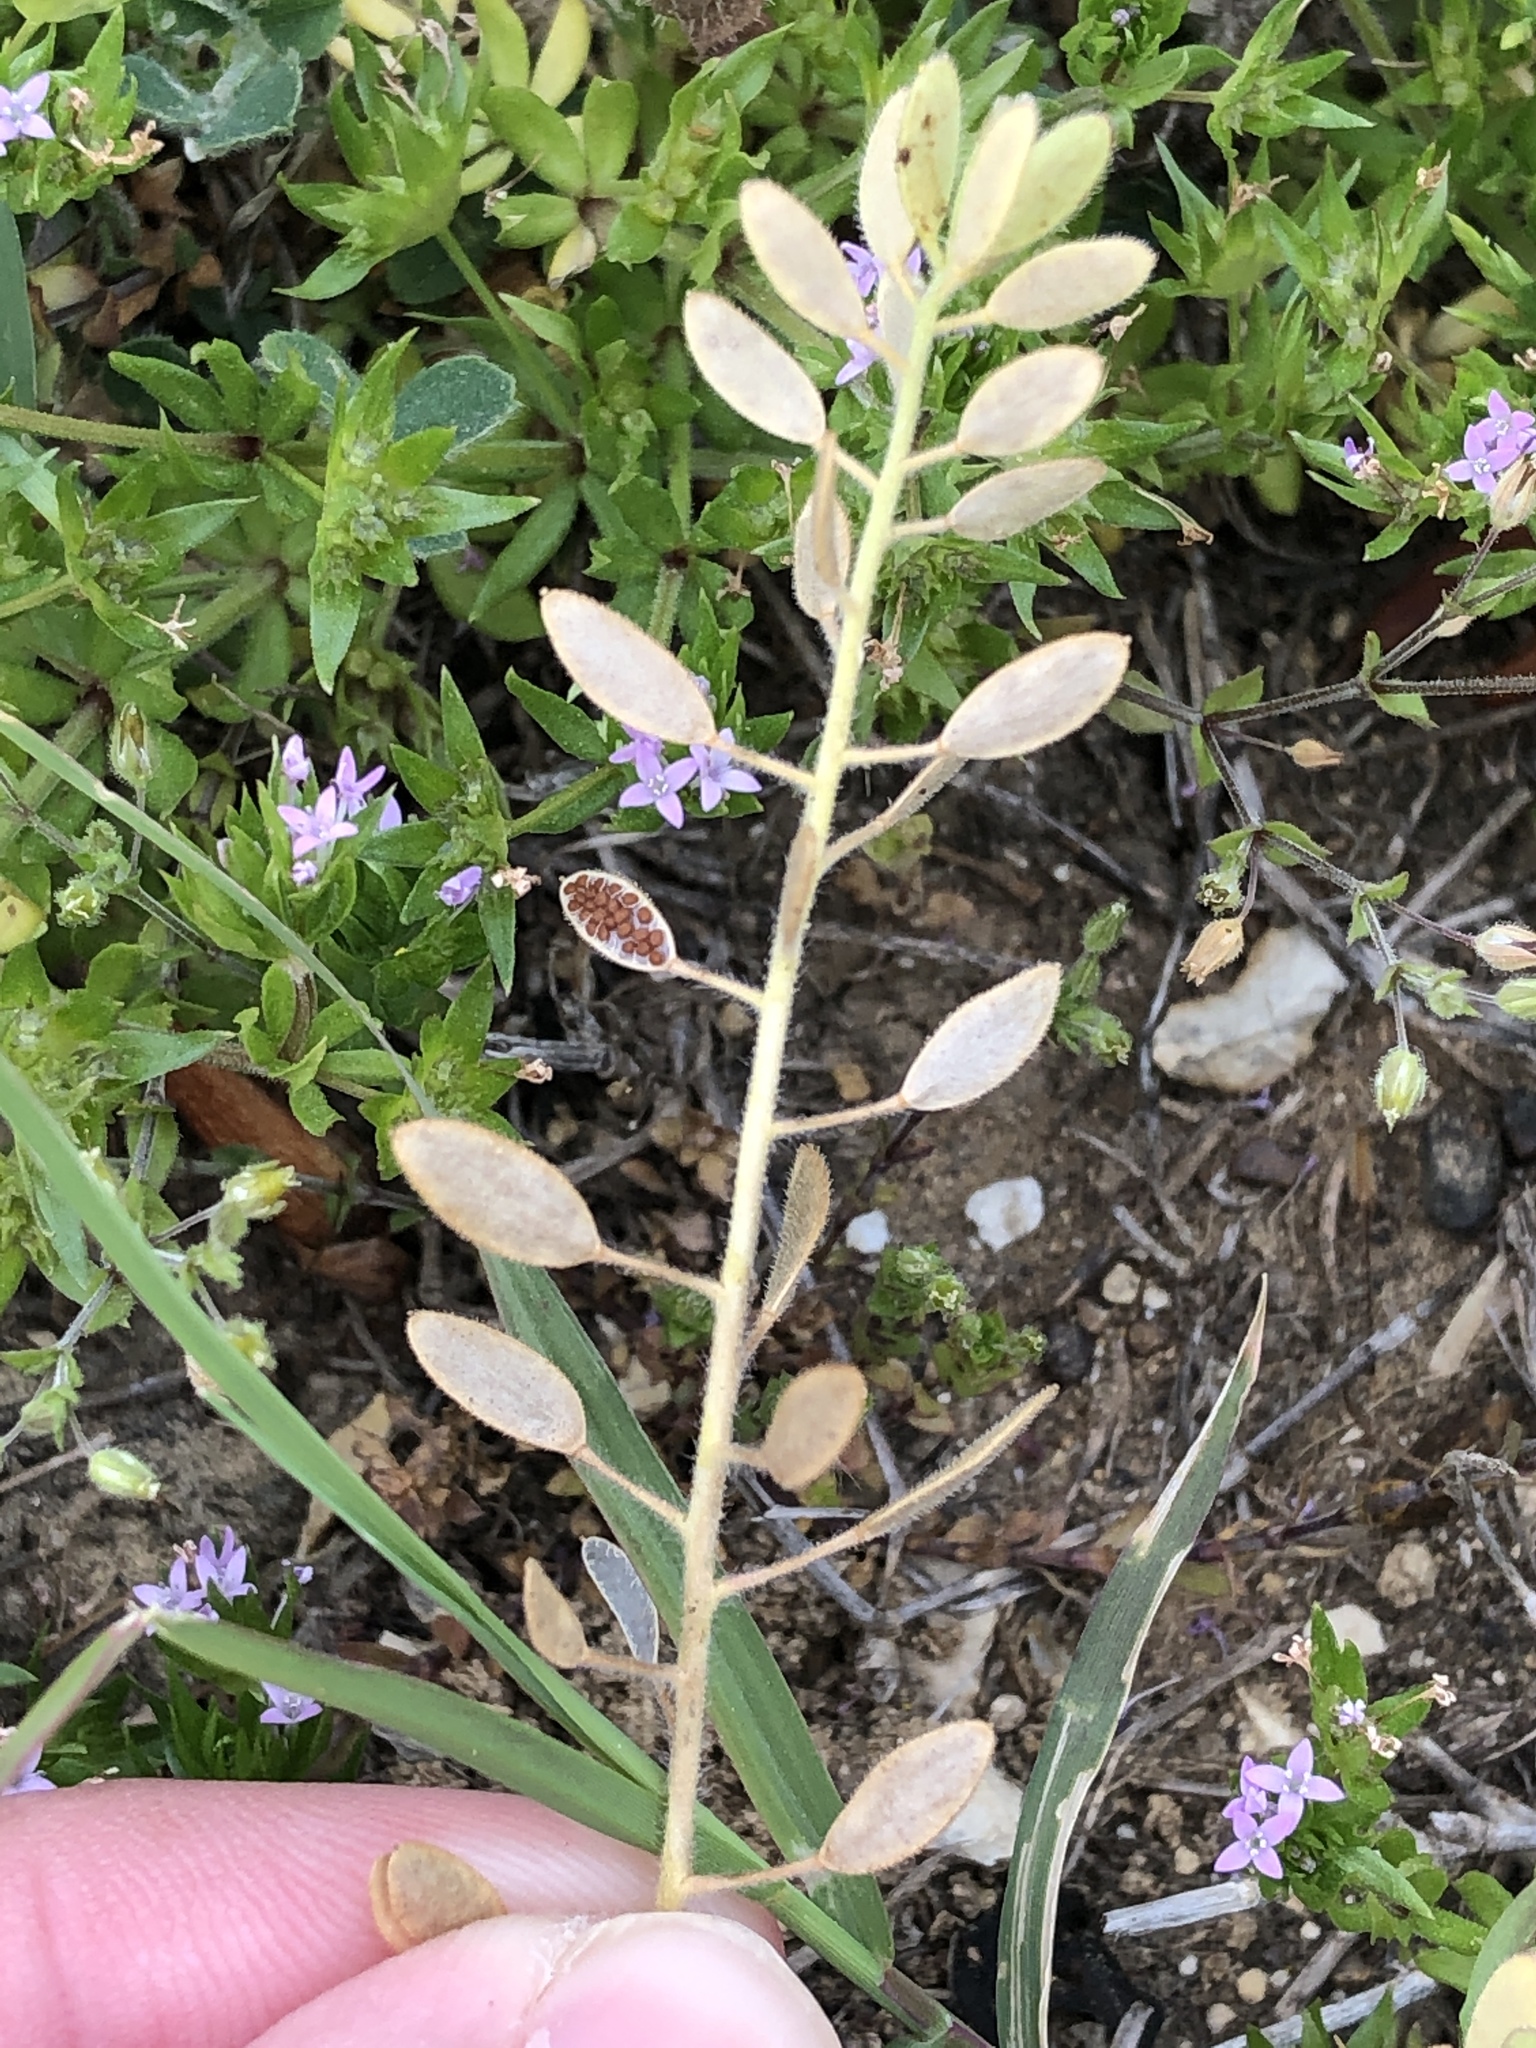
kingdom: Plantae
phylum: Tracheophyta
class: Magnoliopsida
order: Brassicales
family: Brassicaceae
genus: Tomostima
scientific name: Tomostima platycarpa
